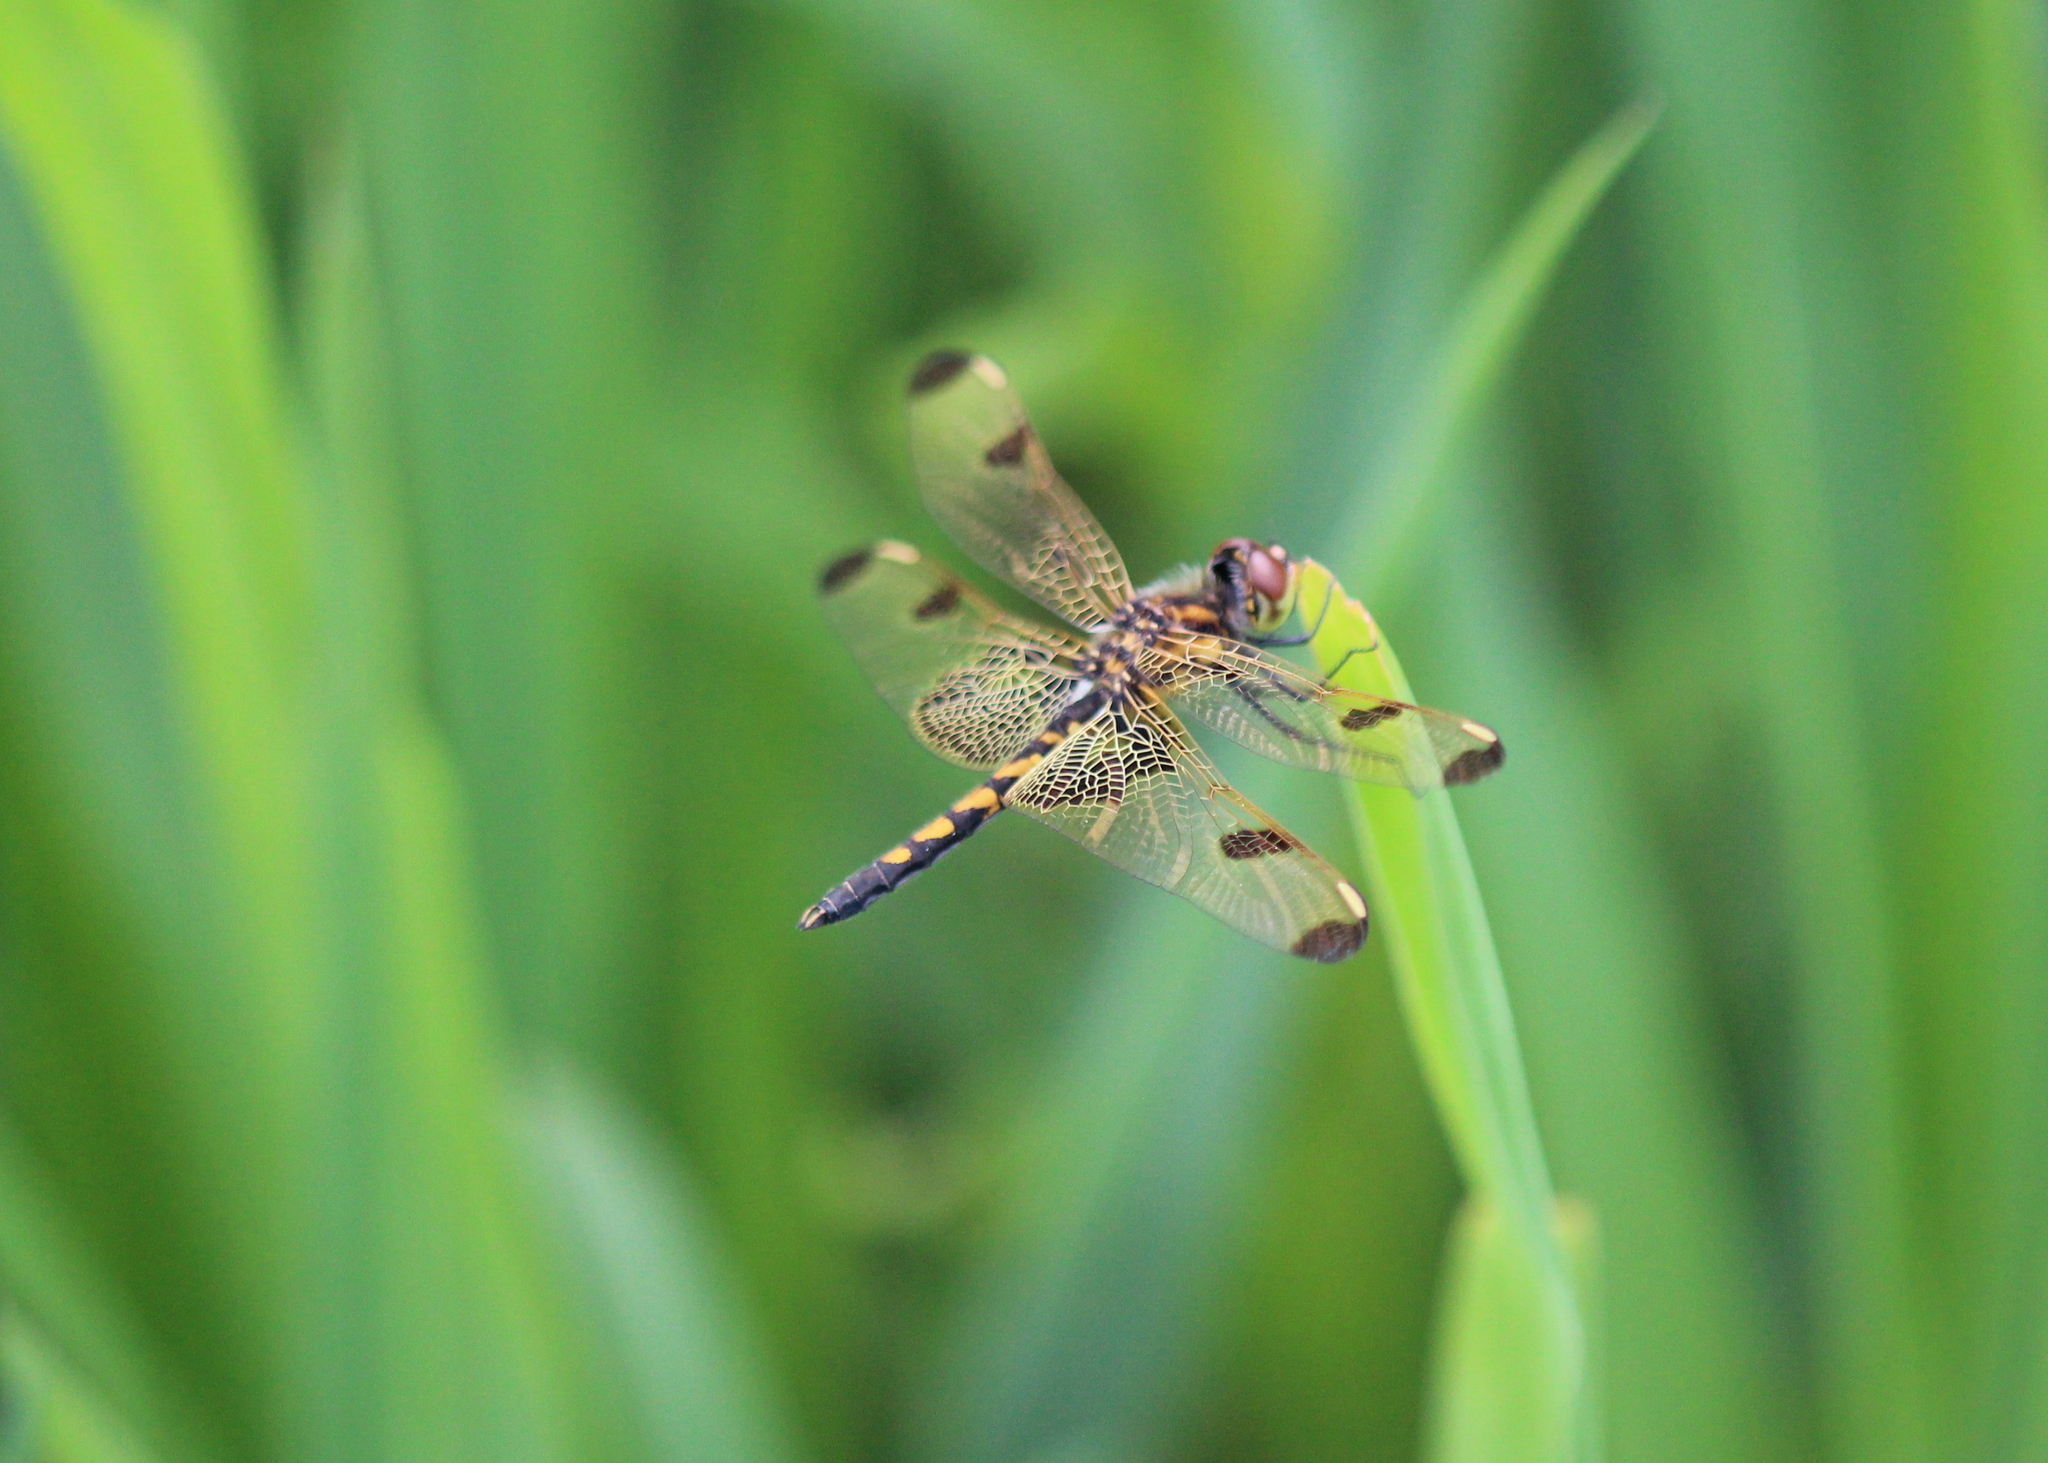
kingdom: Animalia
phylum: Arthropoda
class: Insecta
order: Odonata
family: Libellulidae
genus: Celithemis
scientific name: Celithemis elisa
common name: Calico pennant
